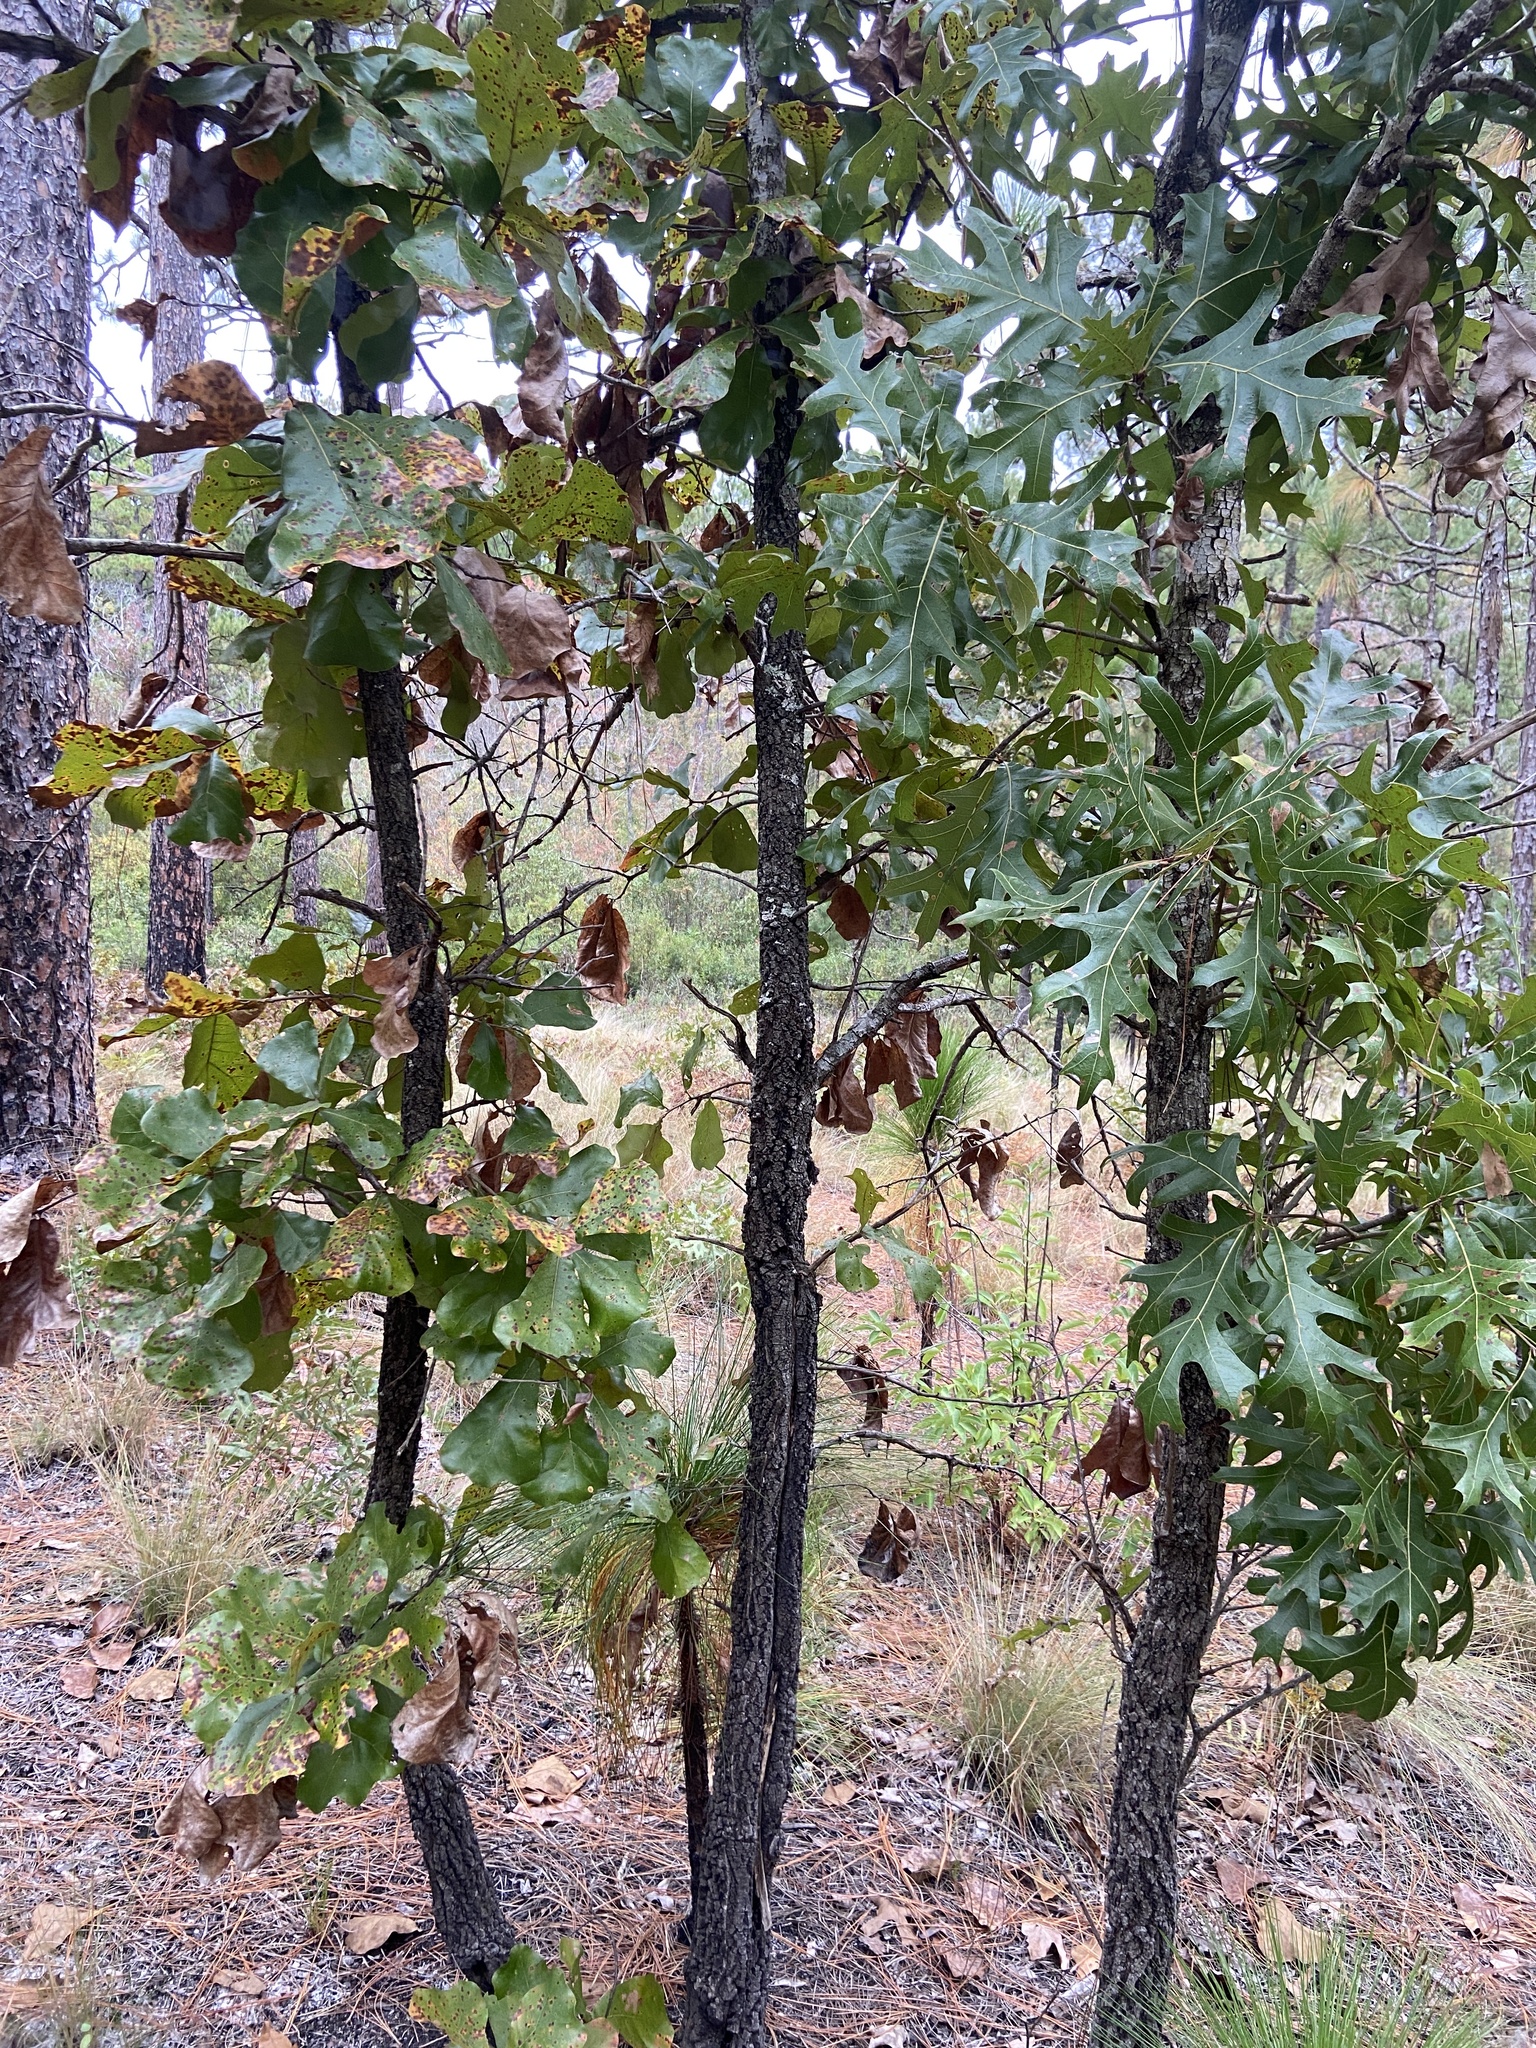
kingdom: Plantae
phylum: Tracheophyta
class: Magnoliopsida
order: Fagales
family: Fagaceae
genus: Quercus
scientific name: Quercus laevis
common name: Turkey oak
